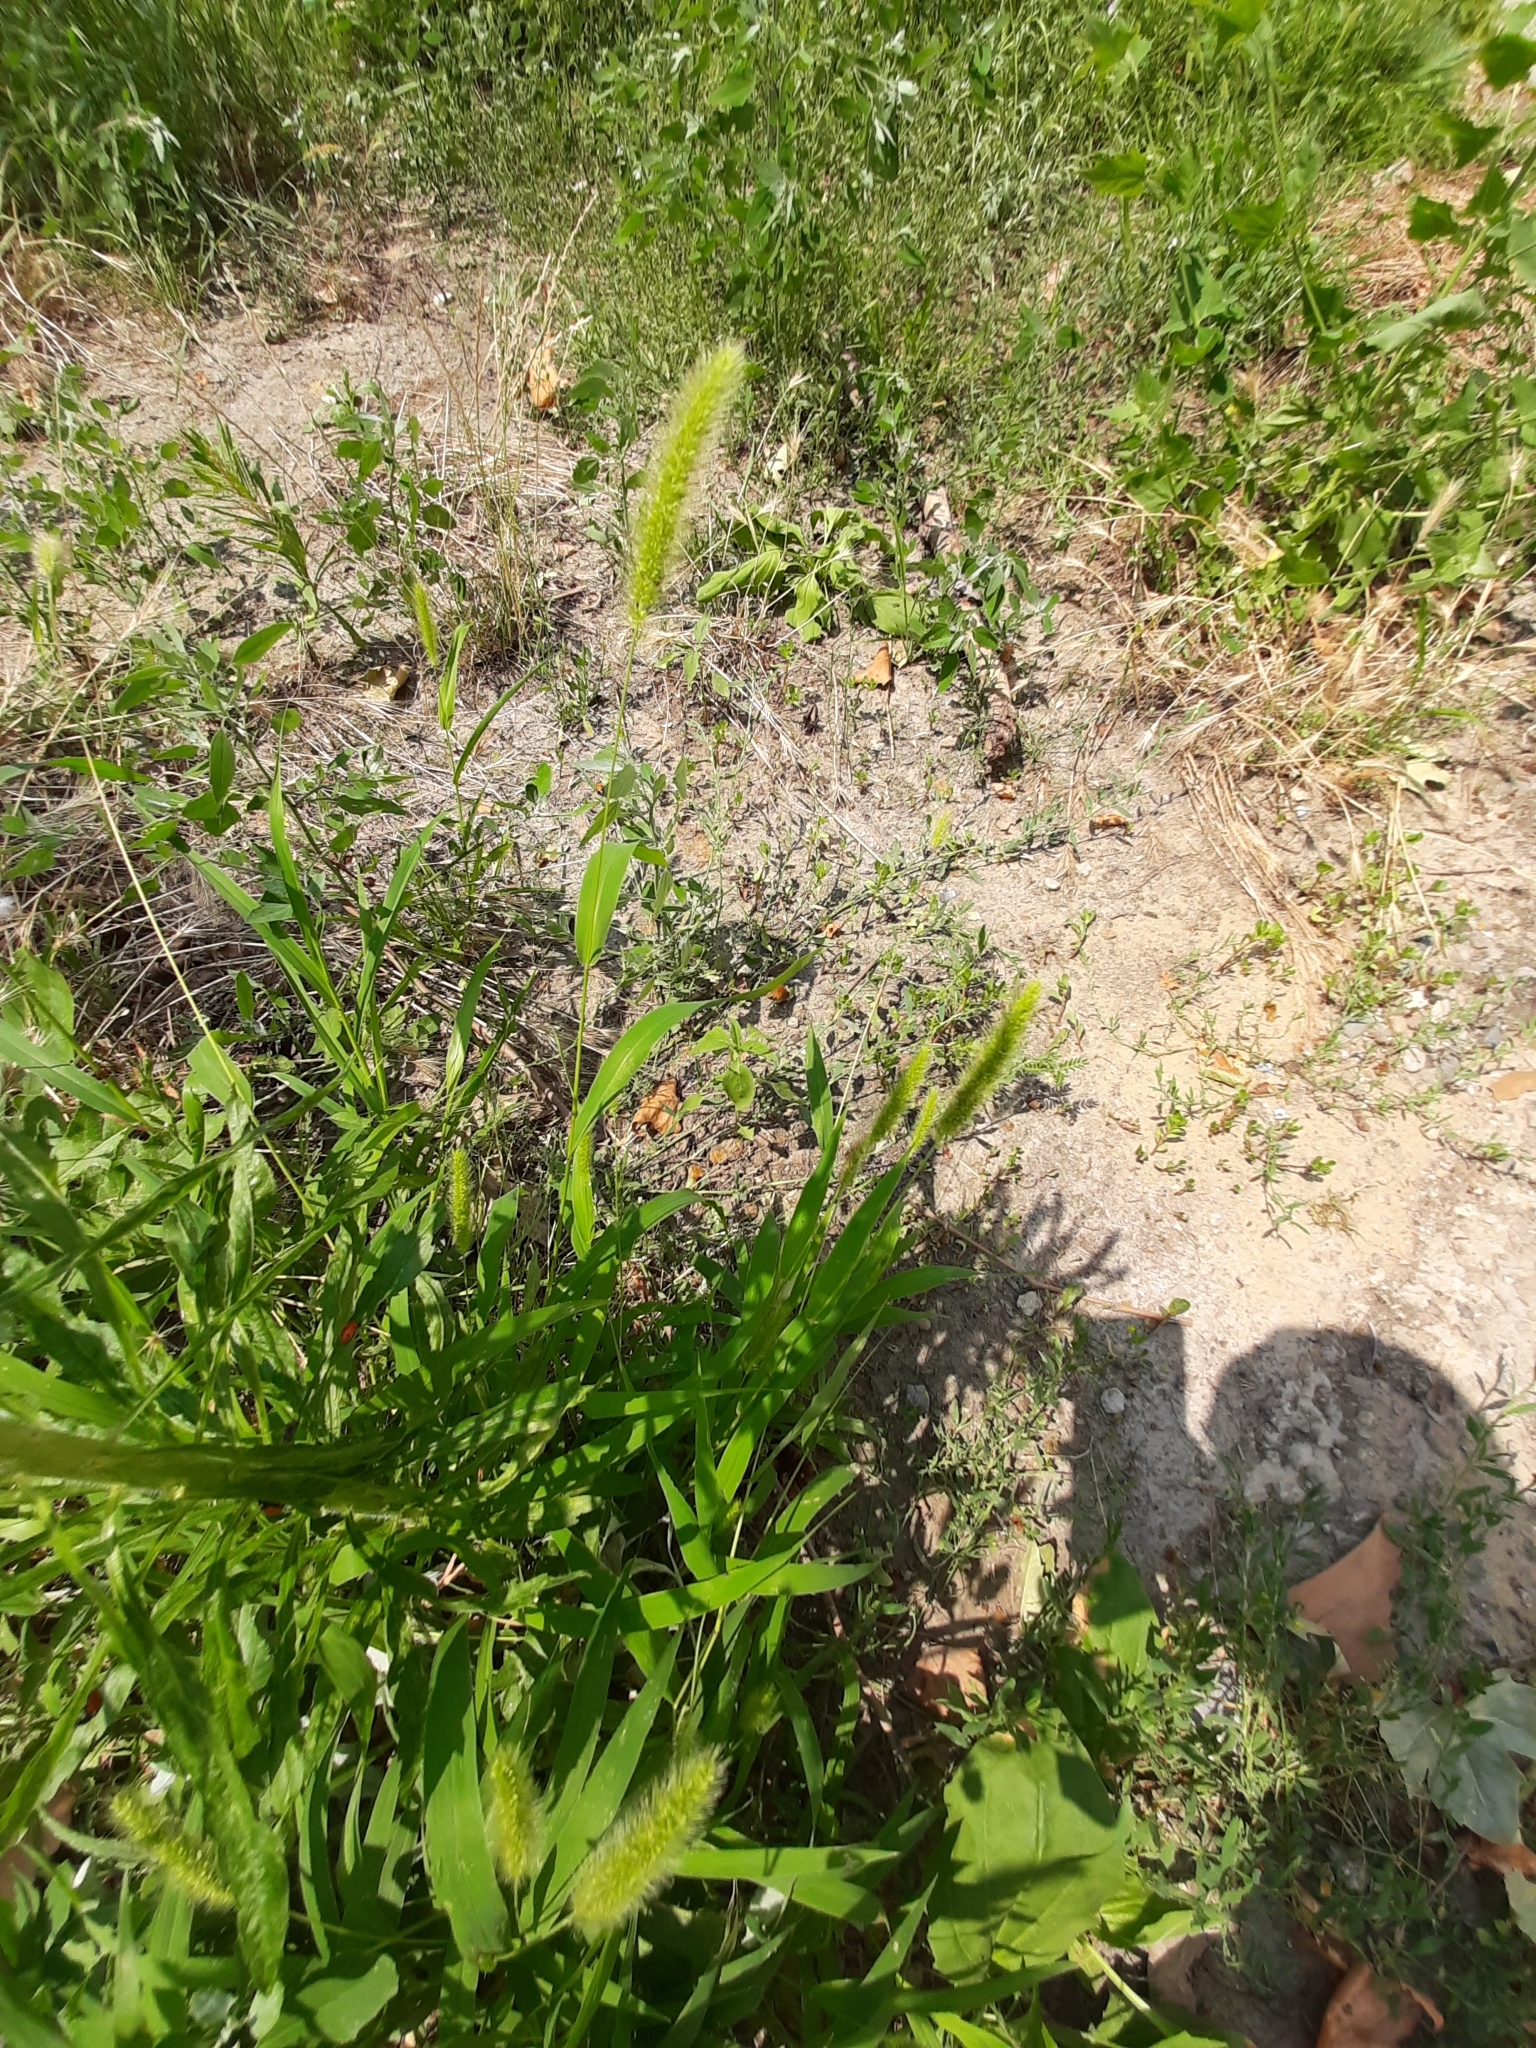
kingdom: Plantae
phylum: Tracheophyta
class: Liliopsida
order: Poales
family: Poaceae
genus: Setaria
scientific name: Setaria viridis
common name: Green bristlegrass
